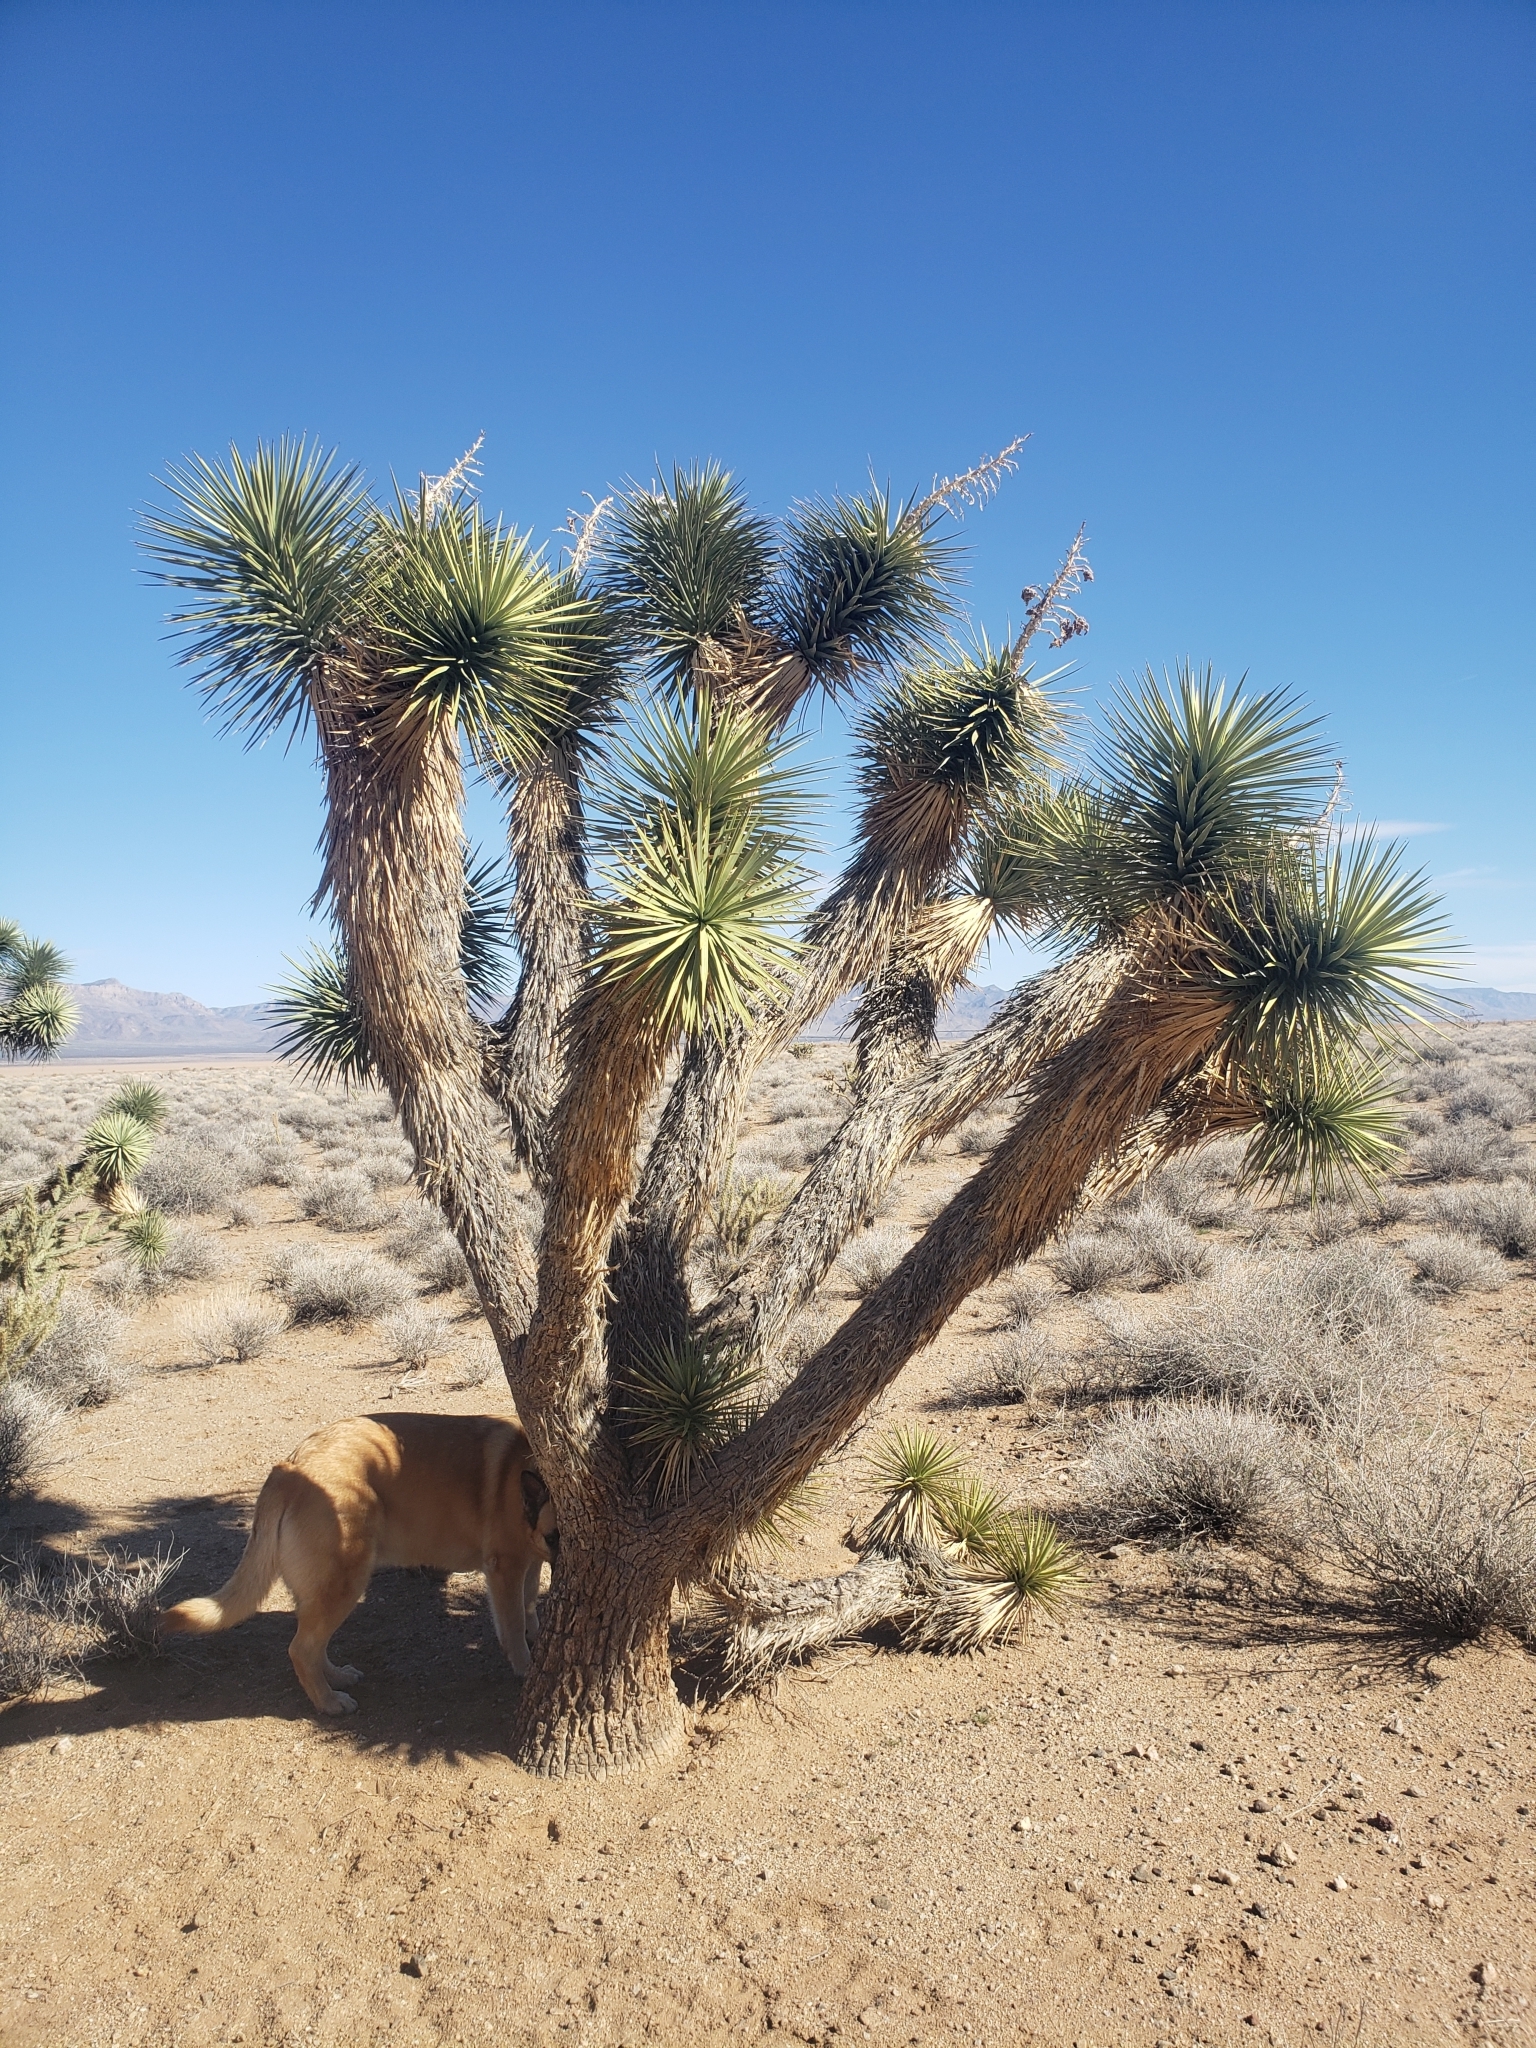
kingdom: Plantae
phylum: Tracheophyta
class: Liliopsida
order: Asparagales
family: Asparagaceae
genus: Yucca
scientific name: Yucca brevifolia
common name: Joshua tree
